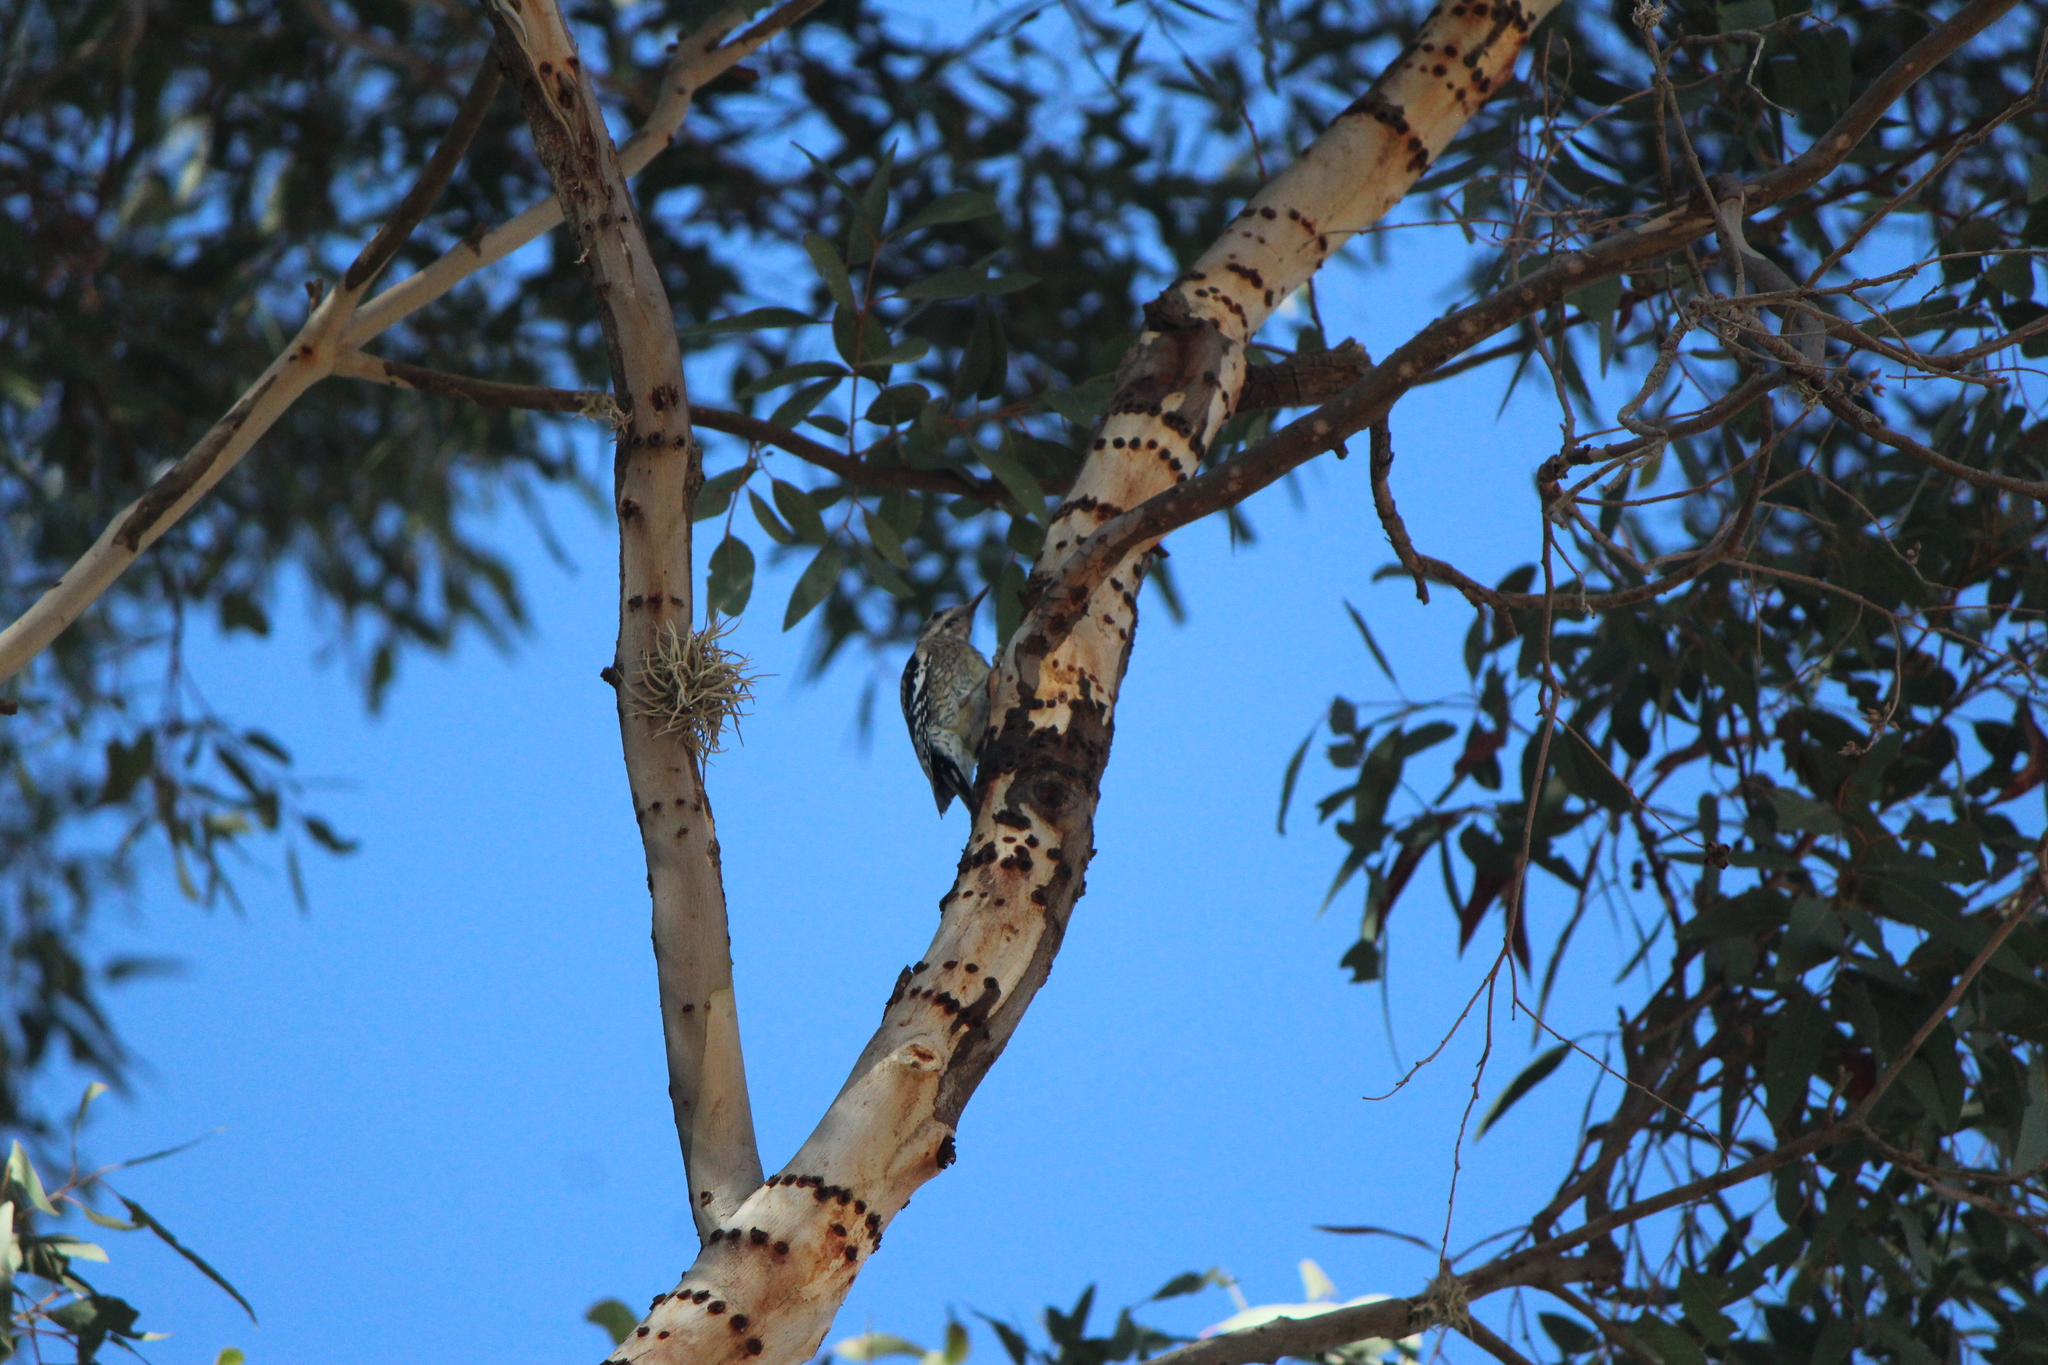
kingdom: Animalia
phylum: Chordata
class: Aves
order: Piciformes
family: Picidae
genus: Sphyrapicus
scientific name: Sphyrapicus varius
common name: Yellow-bellied sapsucker
